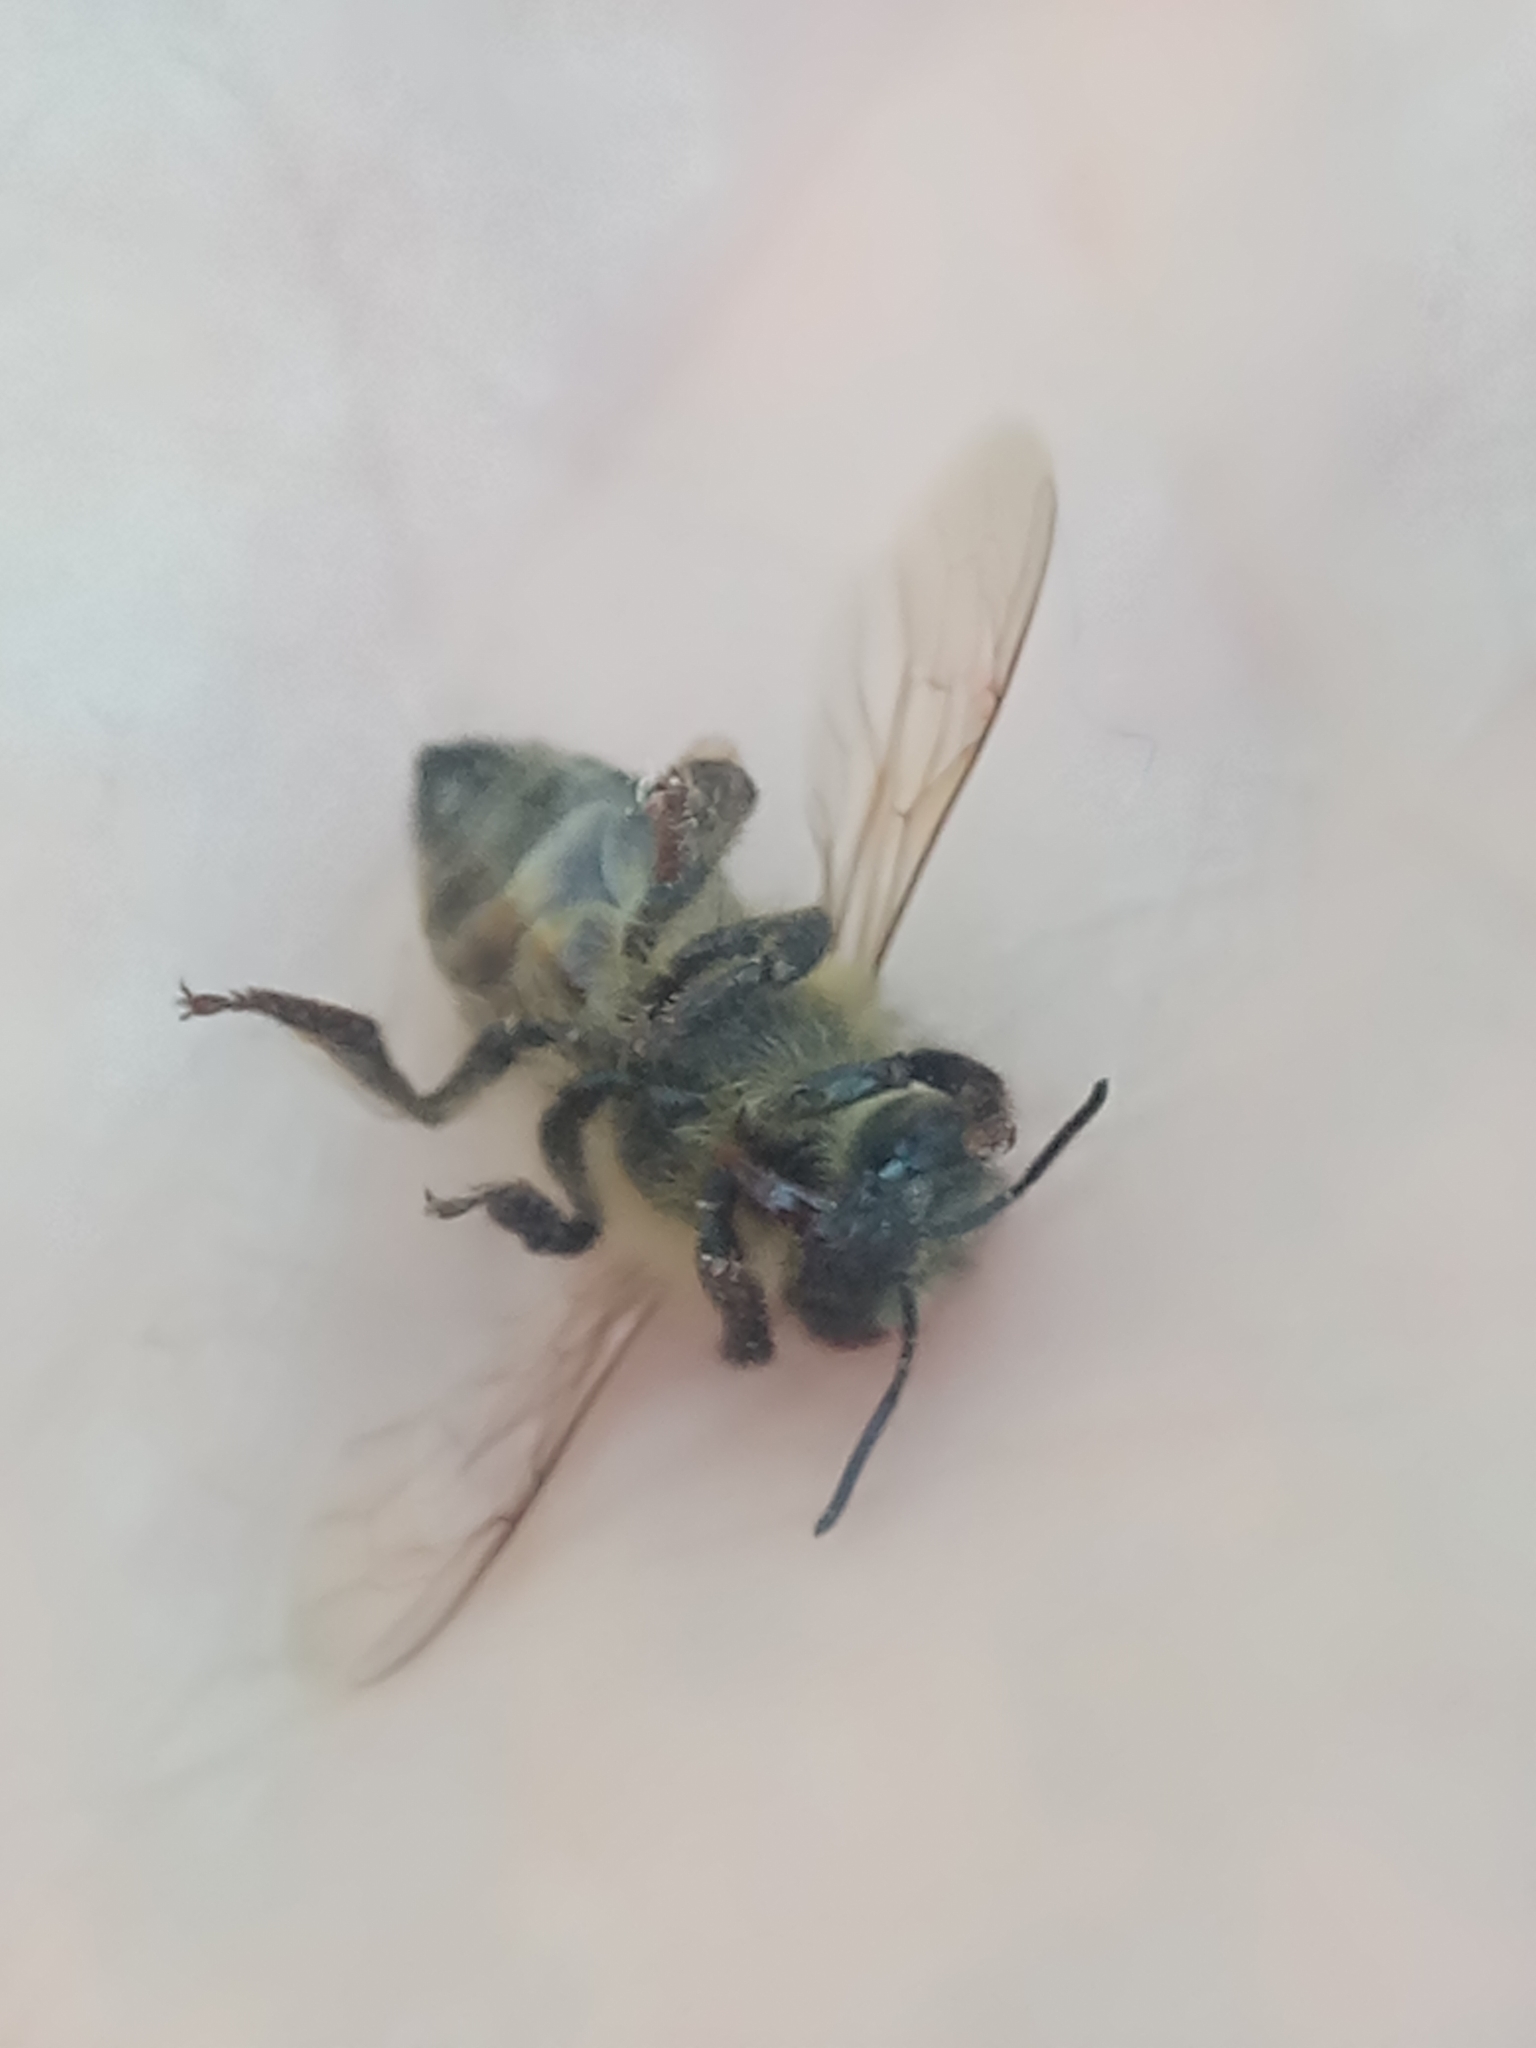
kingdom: Animalia
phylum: Arthropoda
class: Insecta
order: Hymenoptera
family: Apidae
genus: Apis
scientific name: Apis mellifera
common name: Honey bee
